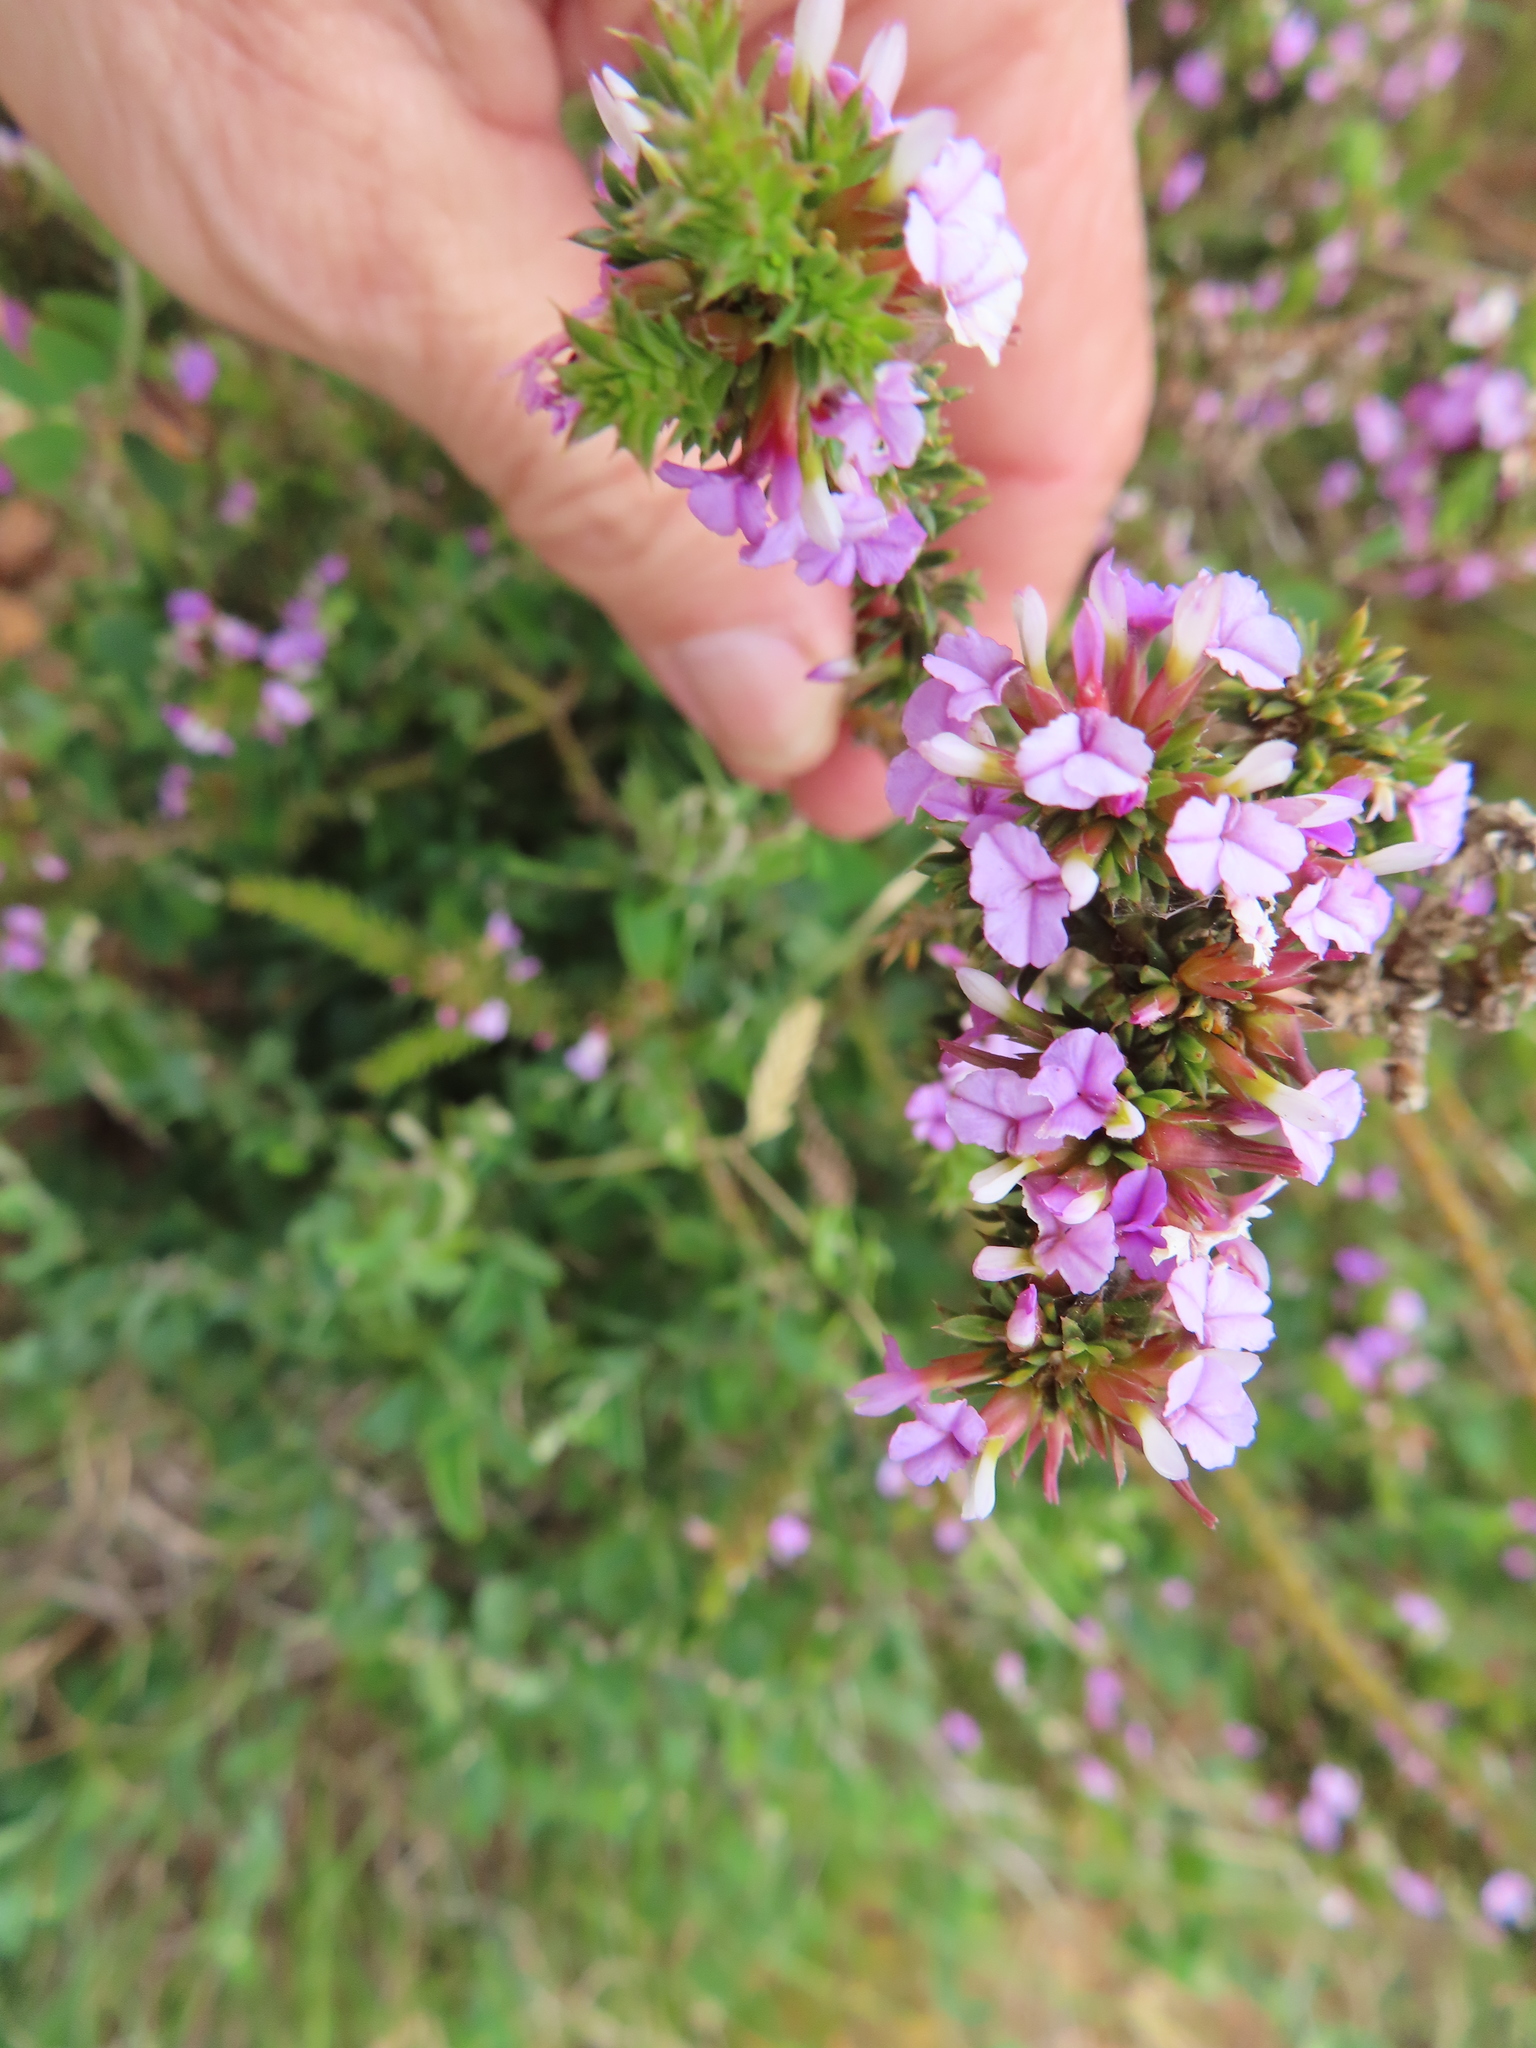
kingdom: Plantae
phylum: Tracheophyta
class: Magnoliopsida
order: Fabales
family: Polygalaceae
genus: Muraltia
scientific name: Muraltia heisteria
